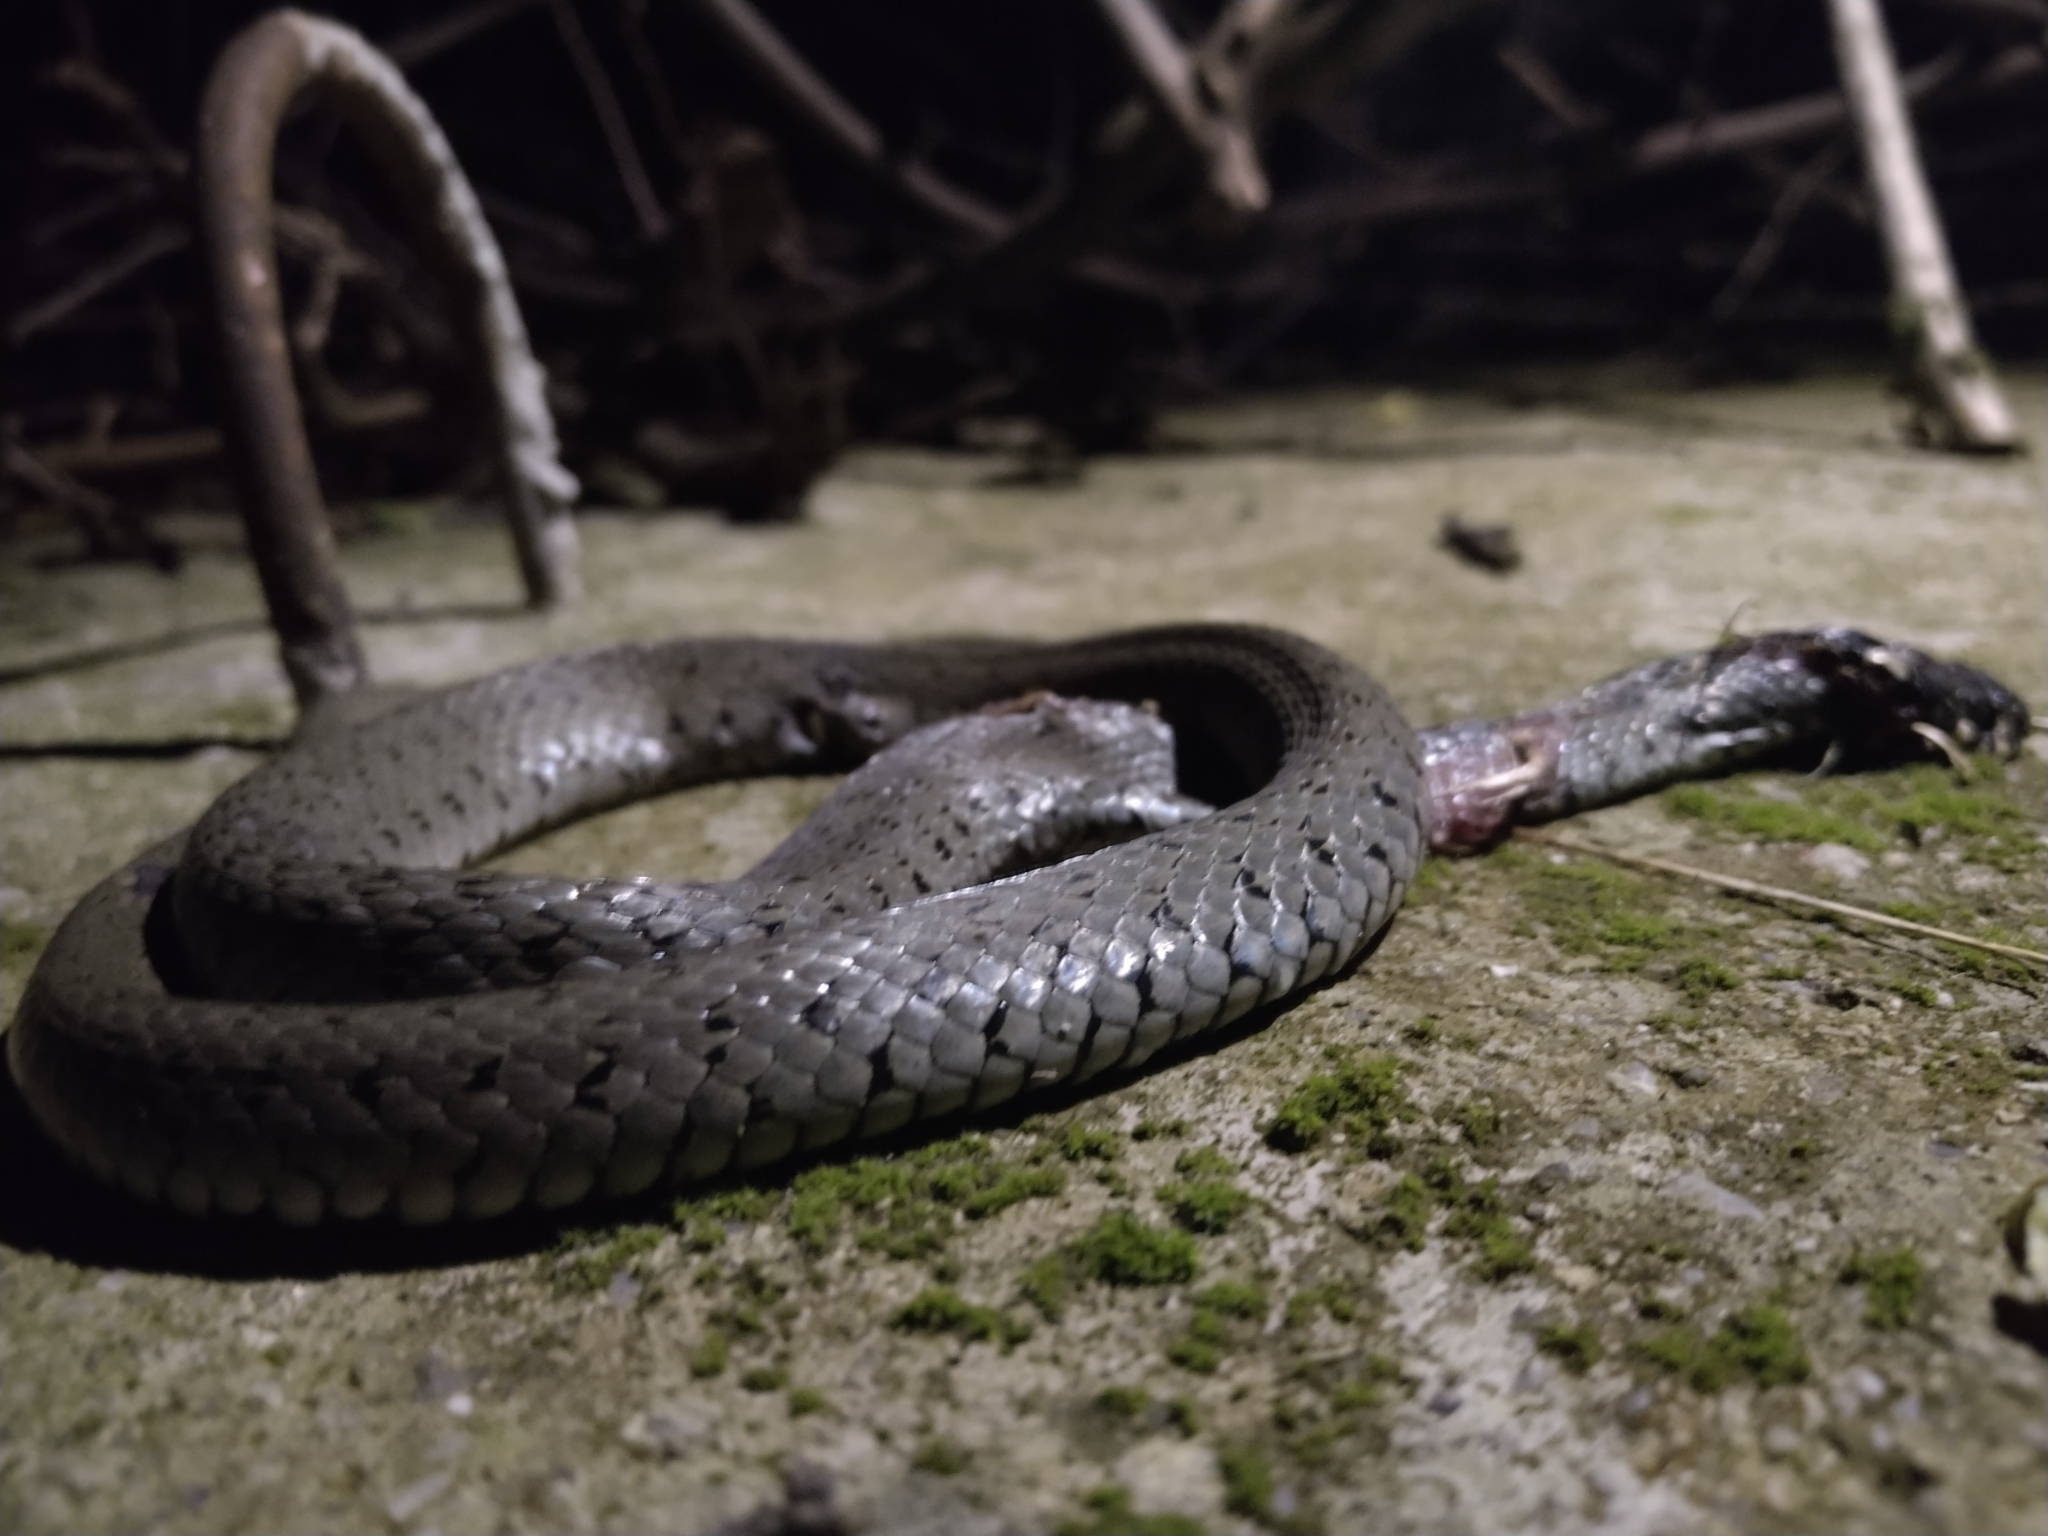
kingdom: Animalia
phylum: Chordata
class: Squamata
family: Colubridae
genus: Natrix
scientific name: Natrix natrix
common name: Grass snake
